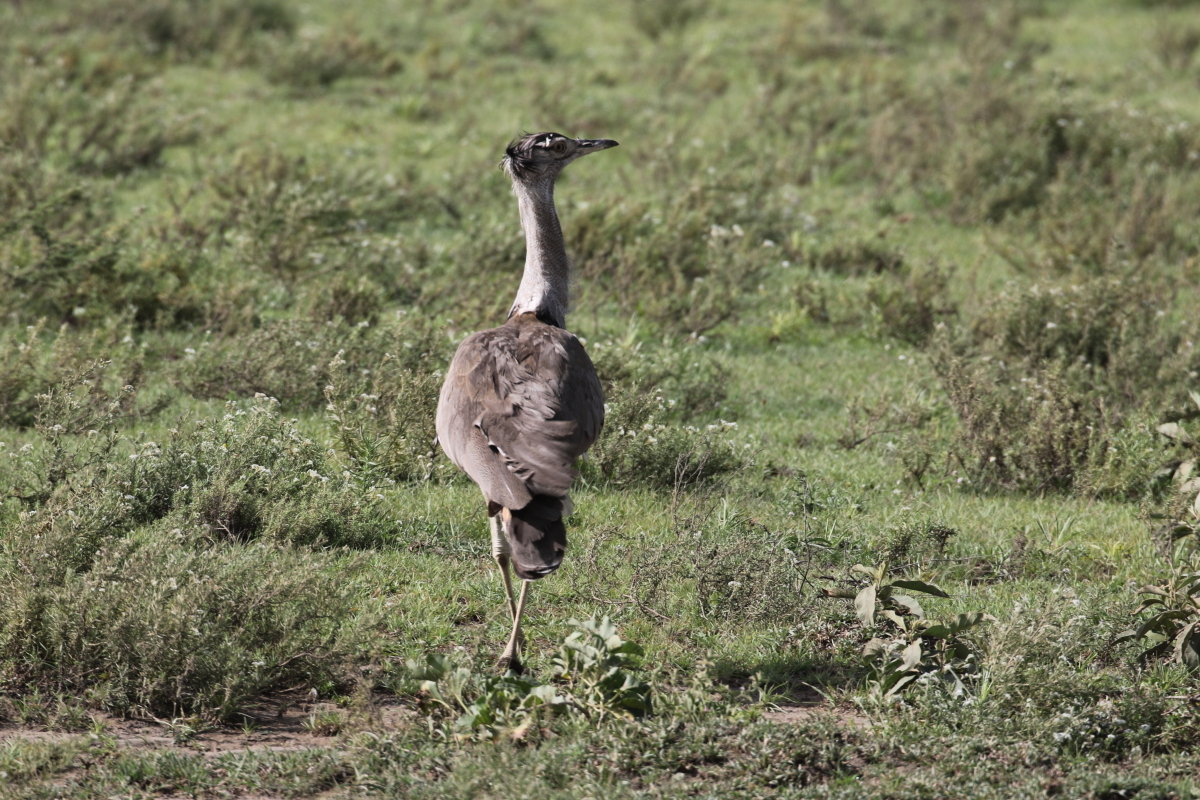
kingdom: Animalia
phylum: Chordata
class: Aves
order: Otidiformes
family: Otididae
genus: Ardeotis
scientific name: Ardeotis kori
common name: Kori bustard
